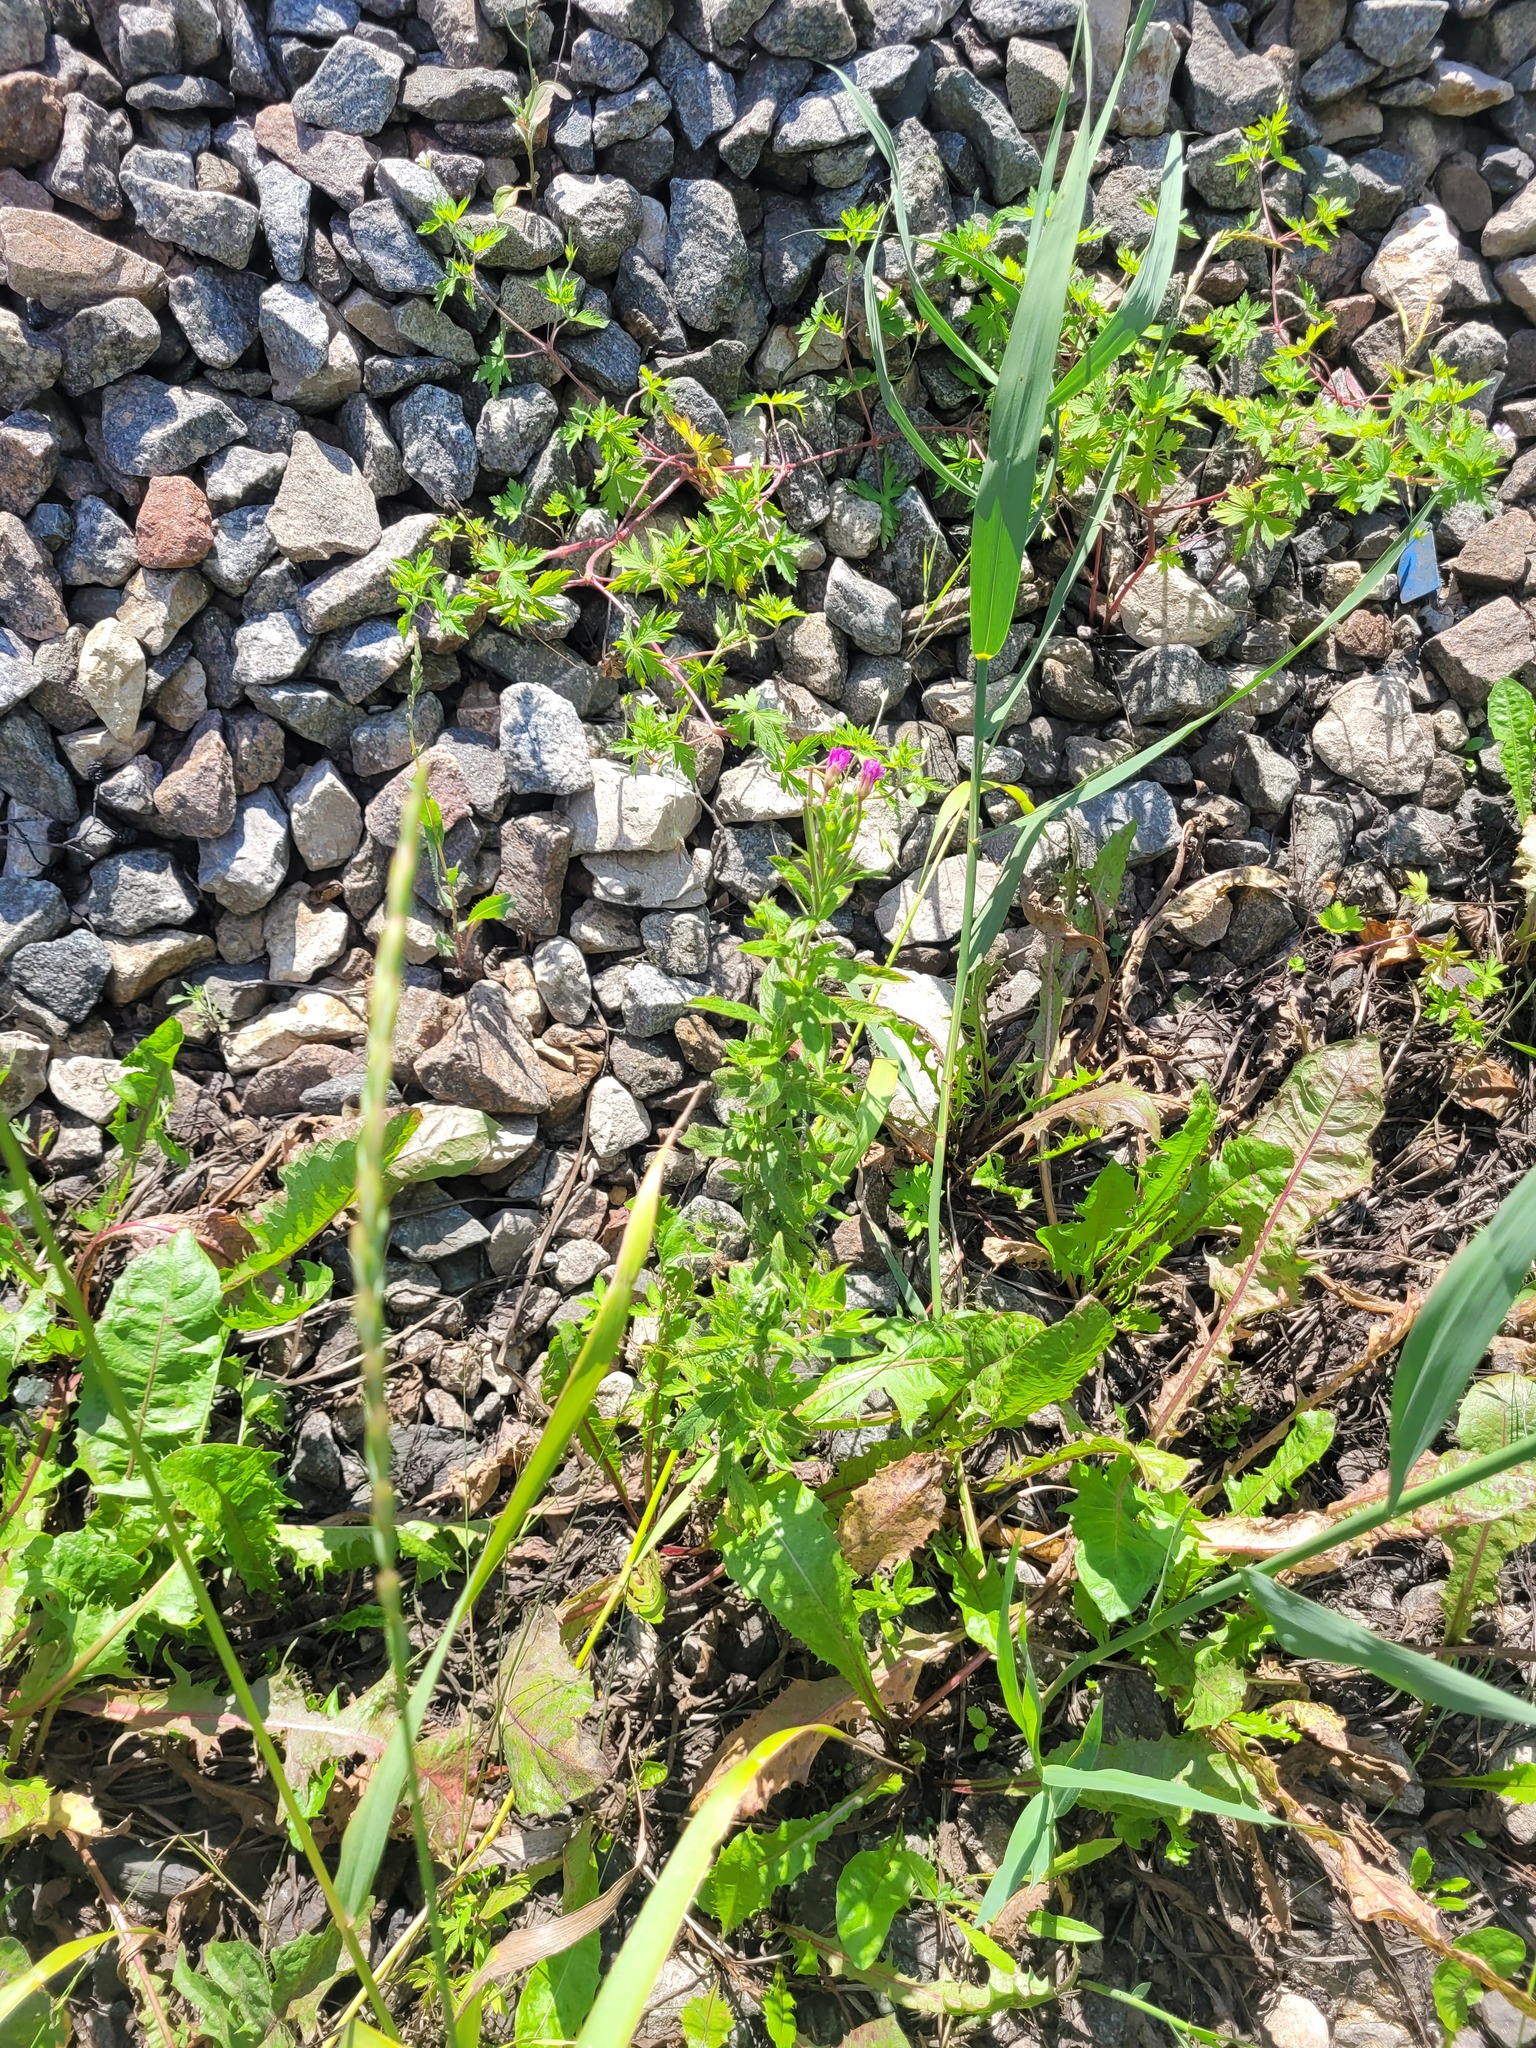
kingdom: Plantae
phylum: Tracheophyta
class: Magnoliopsida
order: Myrtales
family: Onagraceae
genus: Epilobium
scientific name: Epilobium hirsutum
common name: Great willowherb
